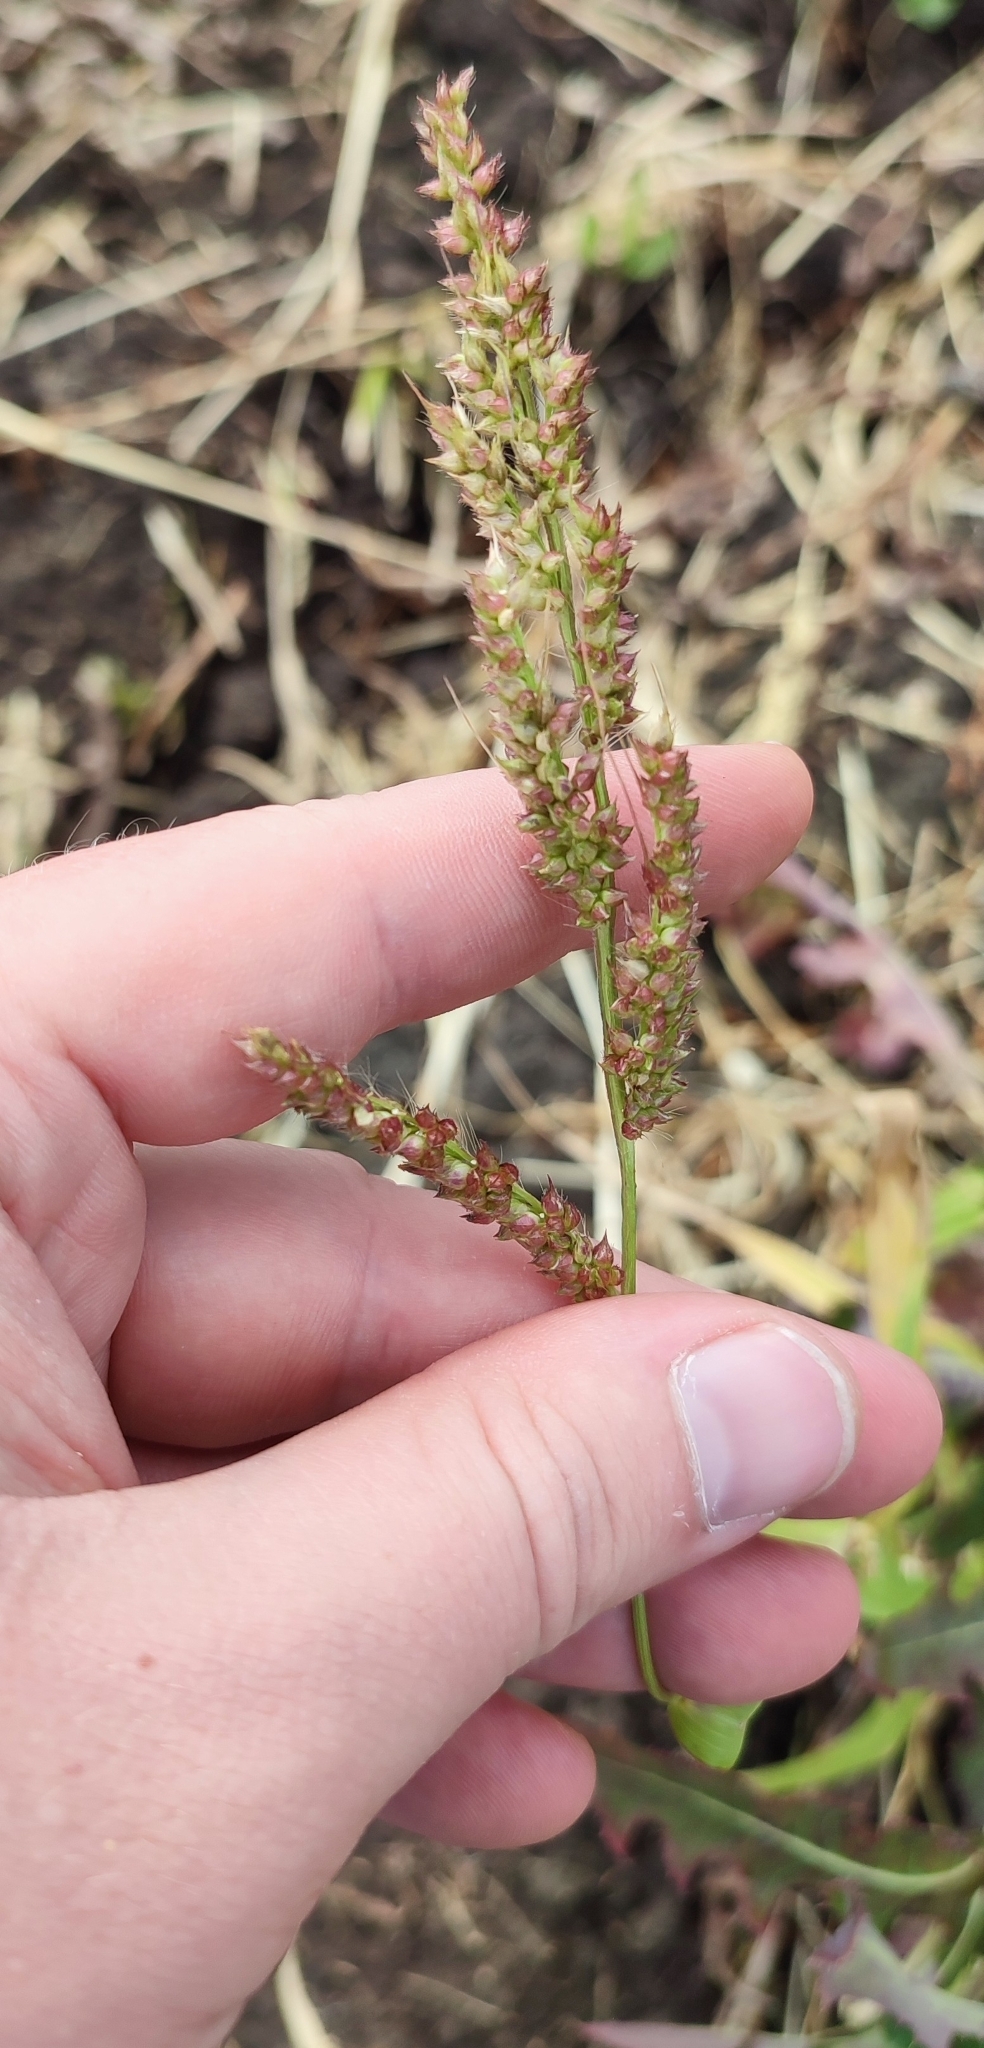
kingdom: Plantae
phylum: Tracheophyta
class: Liliopsida
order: Poales
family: Poaceae
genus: Echinochloa
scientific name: Echinochloa crus-galli
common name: Cockspur
